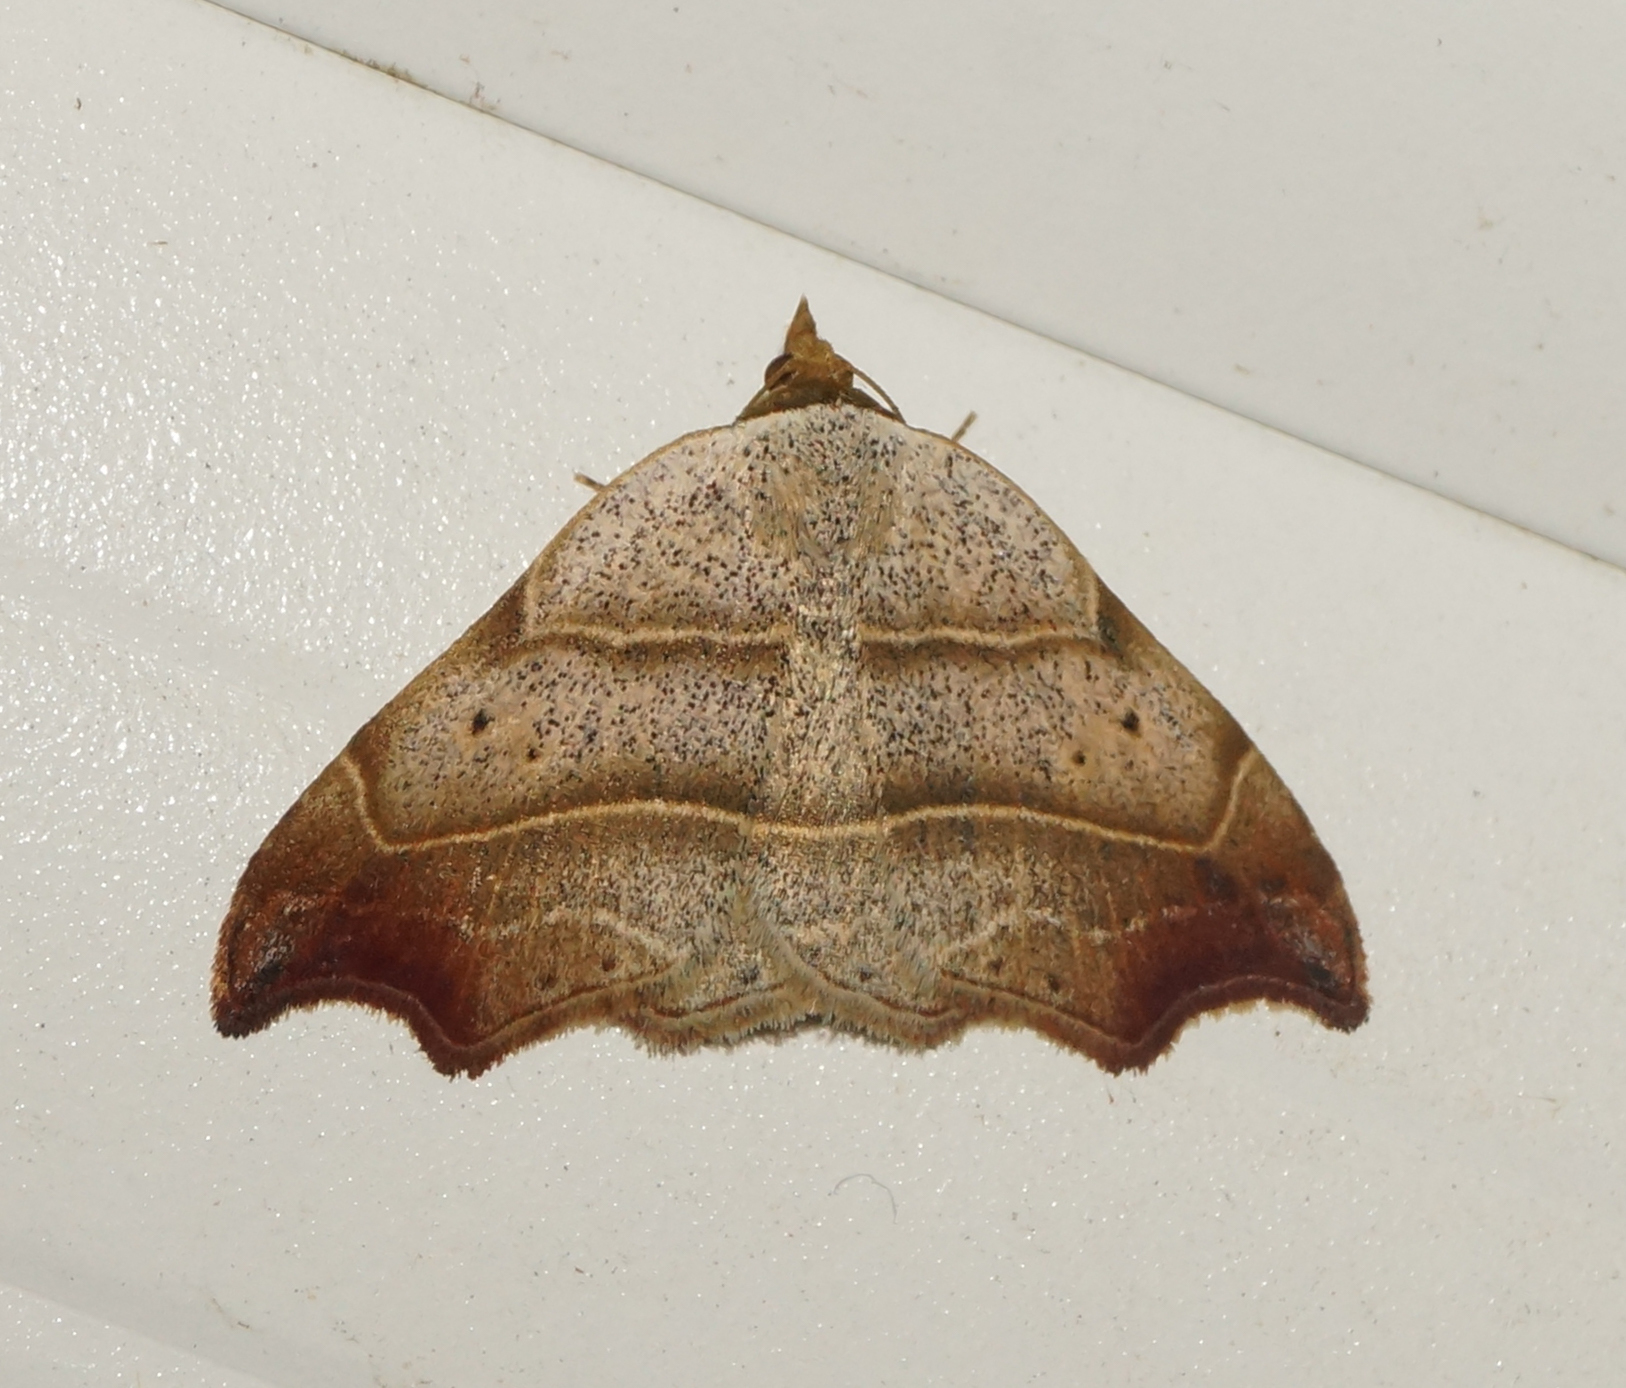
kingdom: Animalia
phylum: Arthropoda
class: Insecta
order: Lepidoptera
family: Erebidae
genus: Laspeyria
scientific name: Laspeyria flexula
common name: Beautiful hook-tip
